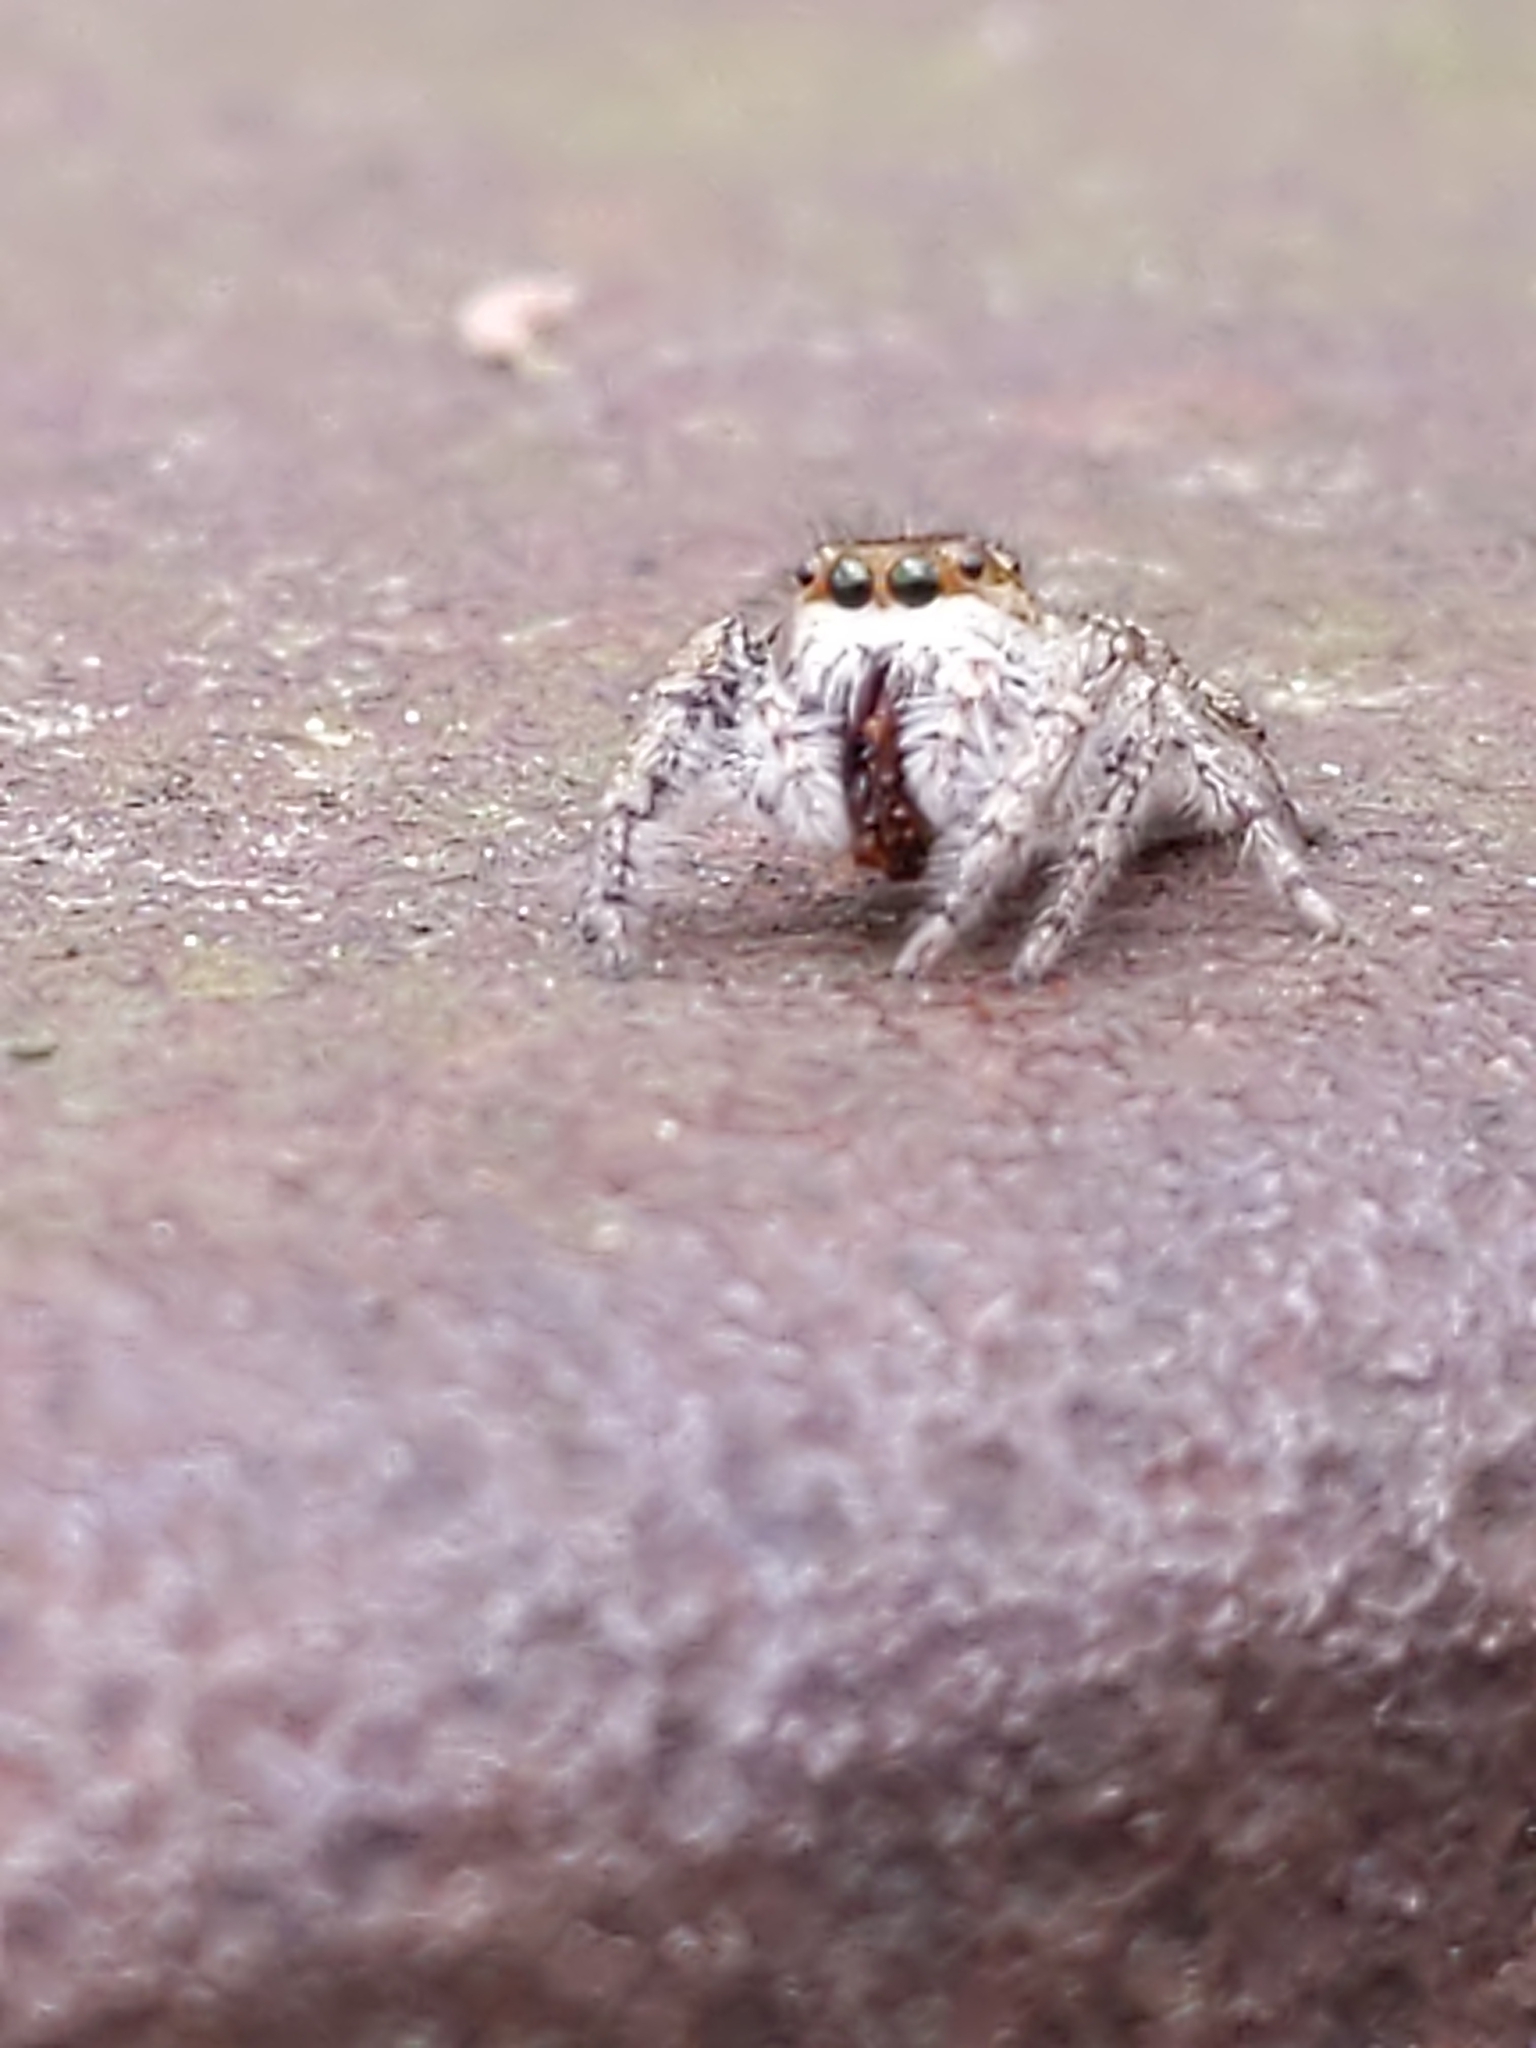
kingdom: Animalia
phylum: Arthropoda
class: Arachnida
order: Araneae
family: Salticidae
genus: Eris
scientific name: Eris
